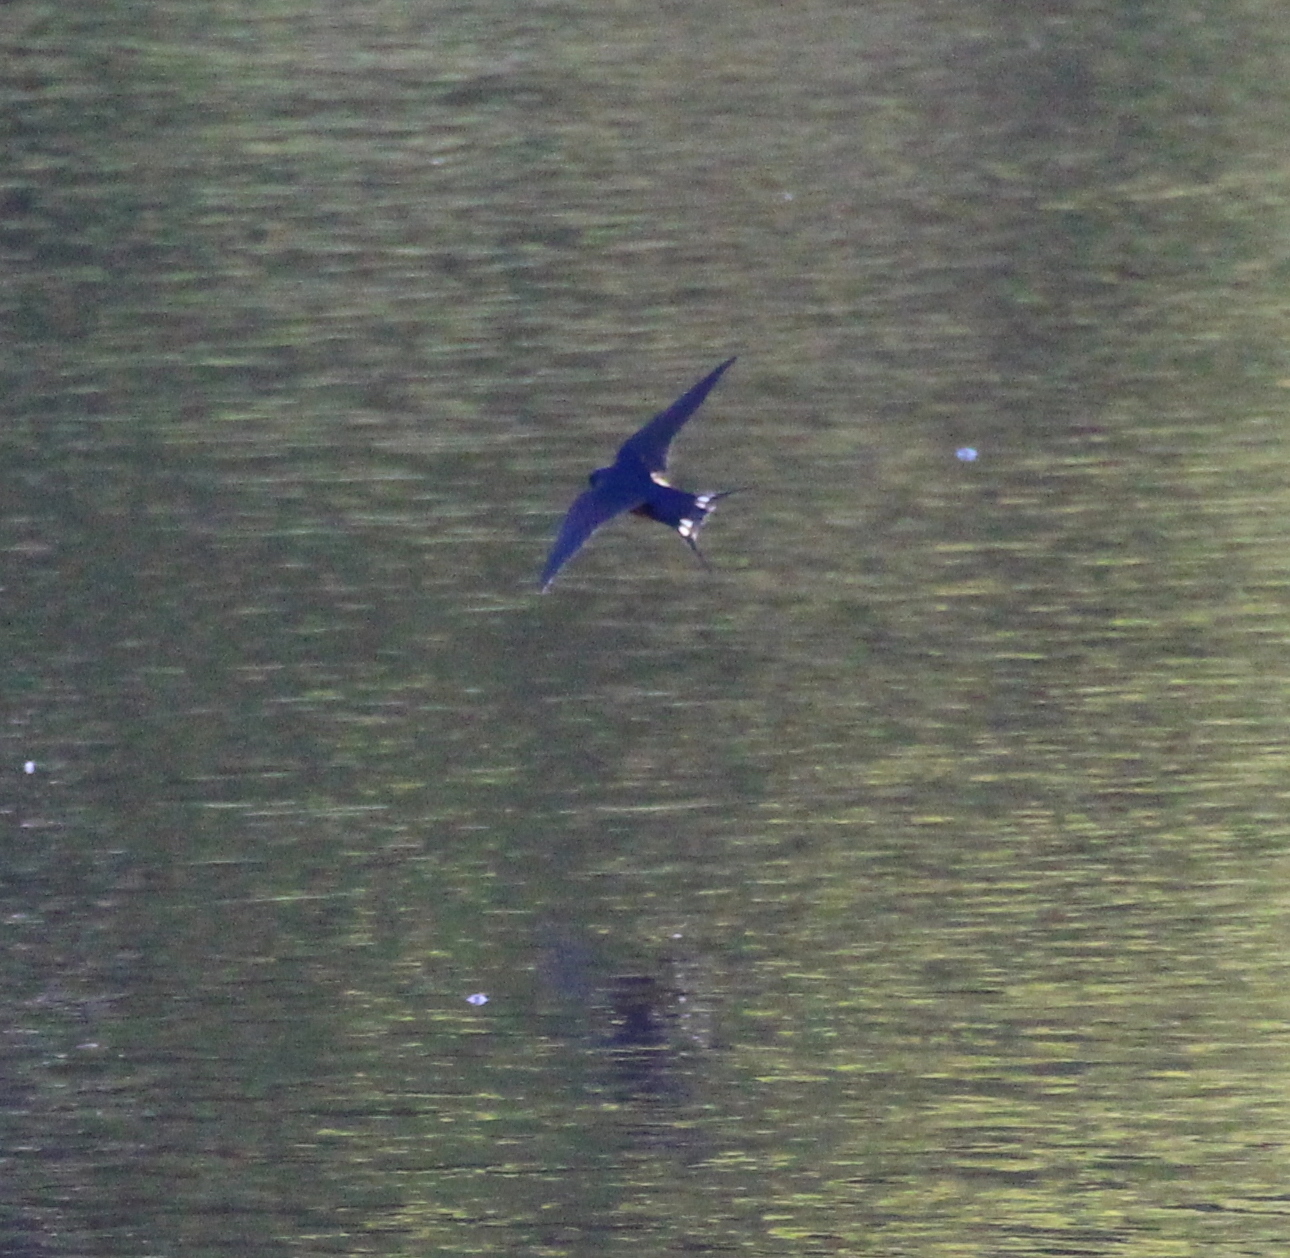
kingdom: Animalia
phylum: Chordata
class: Aves
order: Passeriformes
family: Hirundinidae
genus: Hirundo
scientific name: Hirundo rustica
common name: Barn swallow
